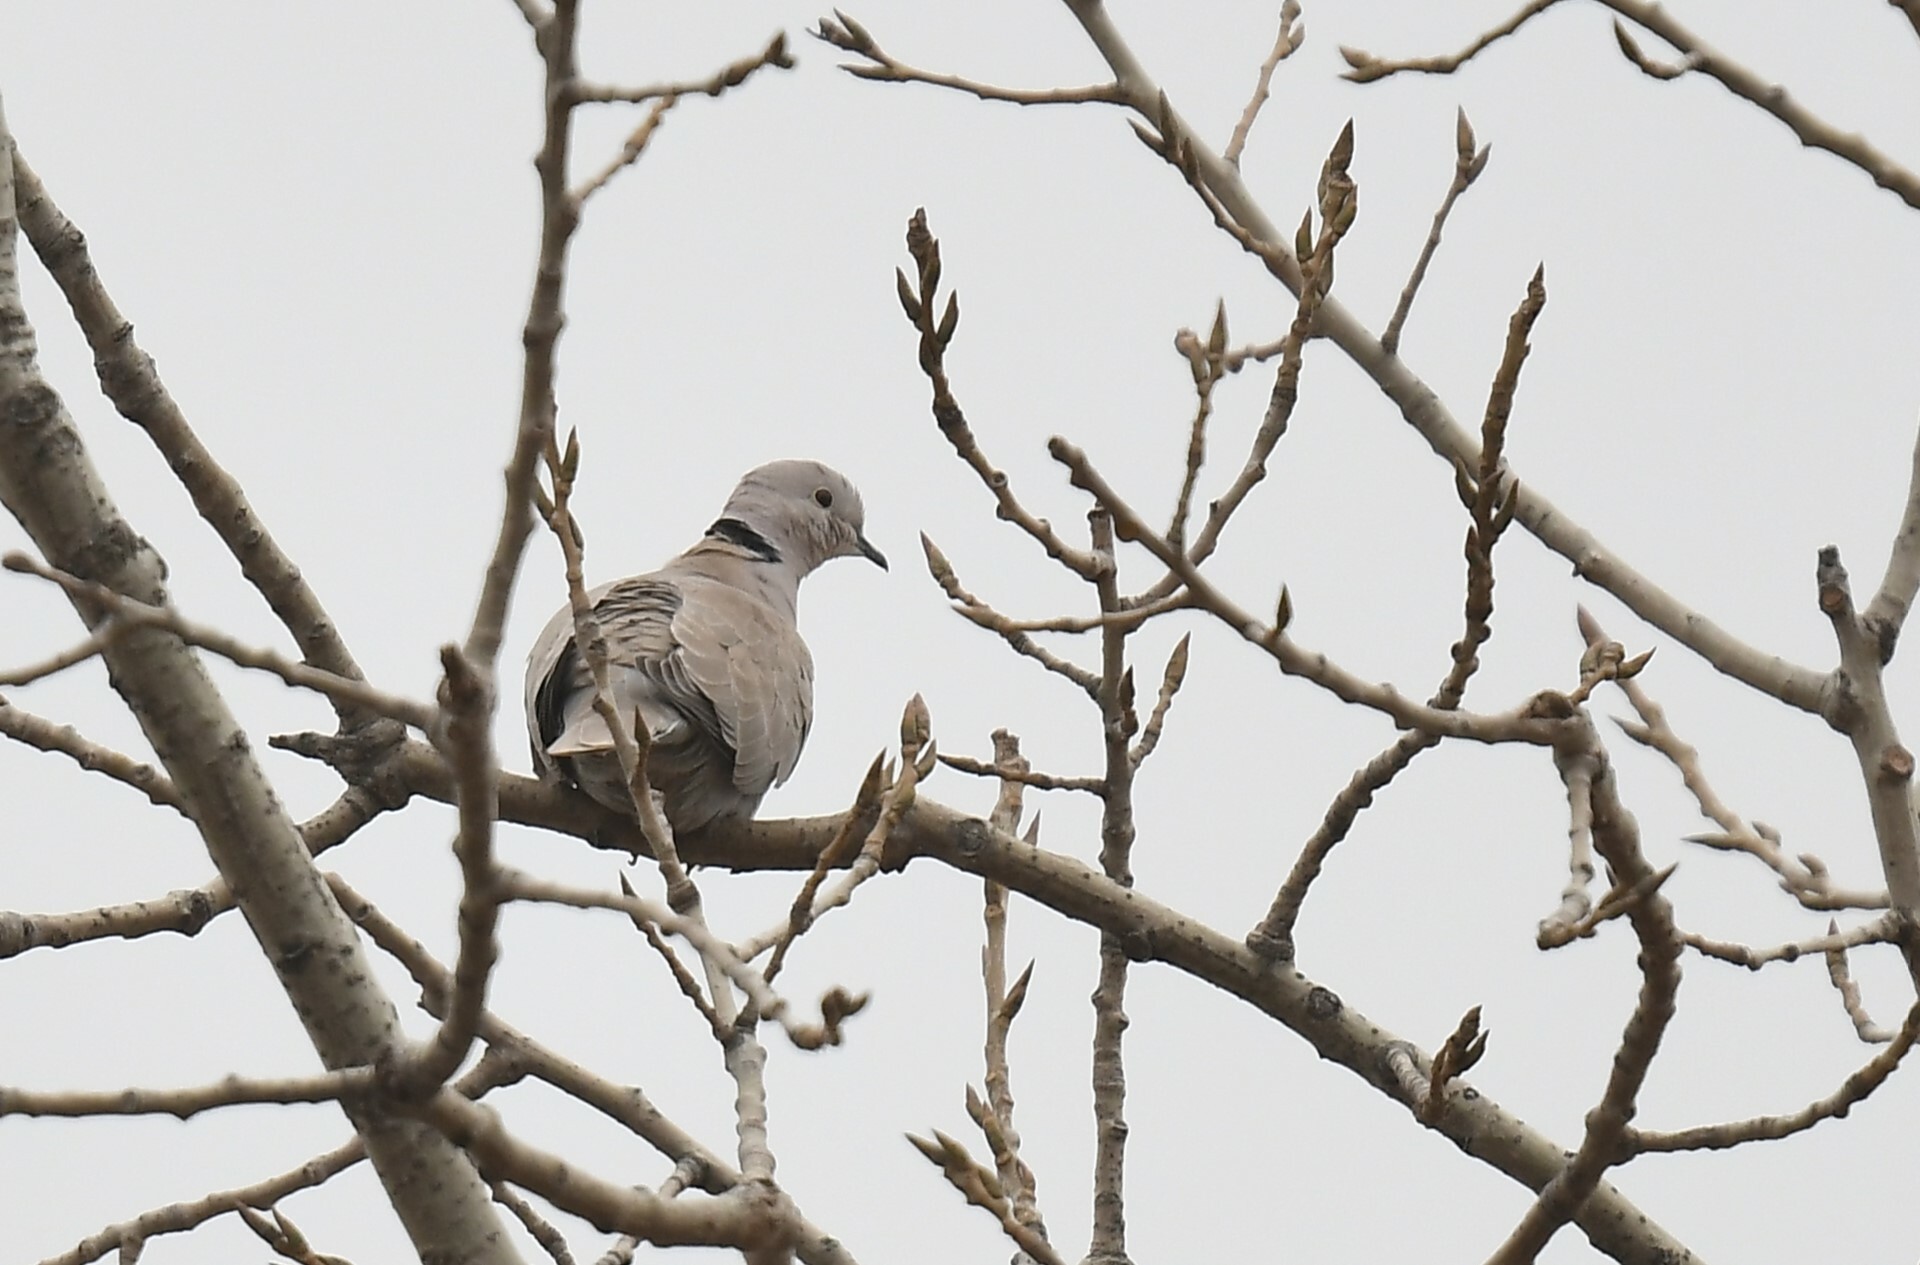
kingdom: Animalia
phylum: Chordata
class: Aves
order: Columbiformes
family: Columbidae
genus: Streptopelia
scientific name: Streptopelia decaocto
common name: Eurasian collared dove
